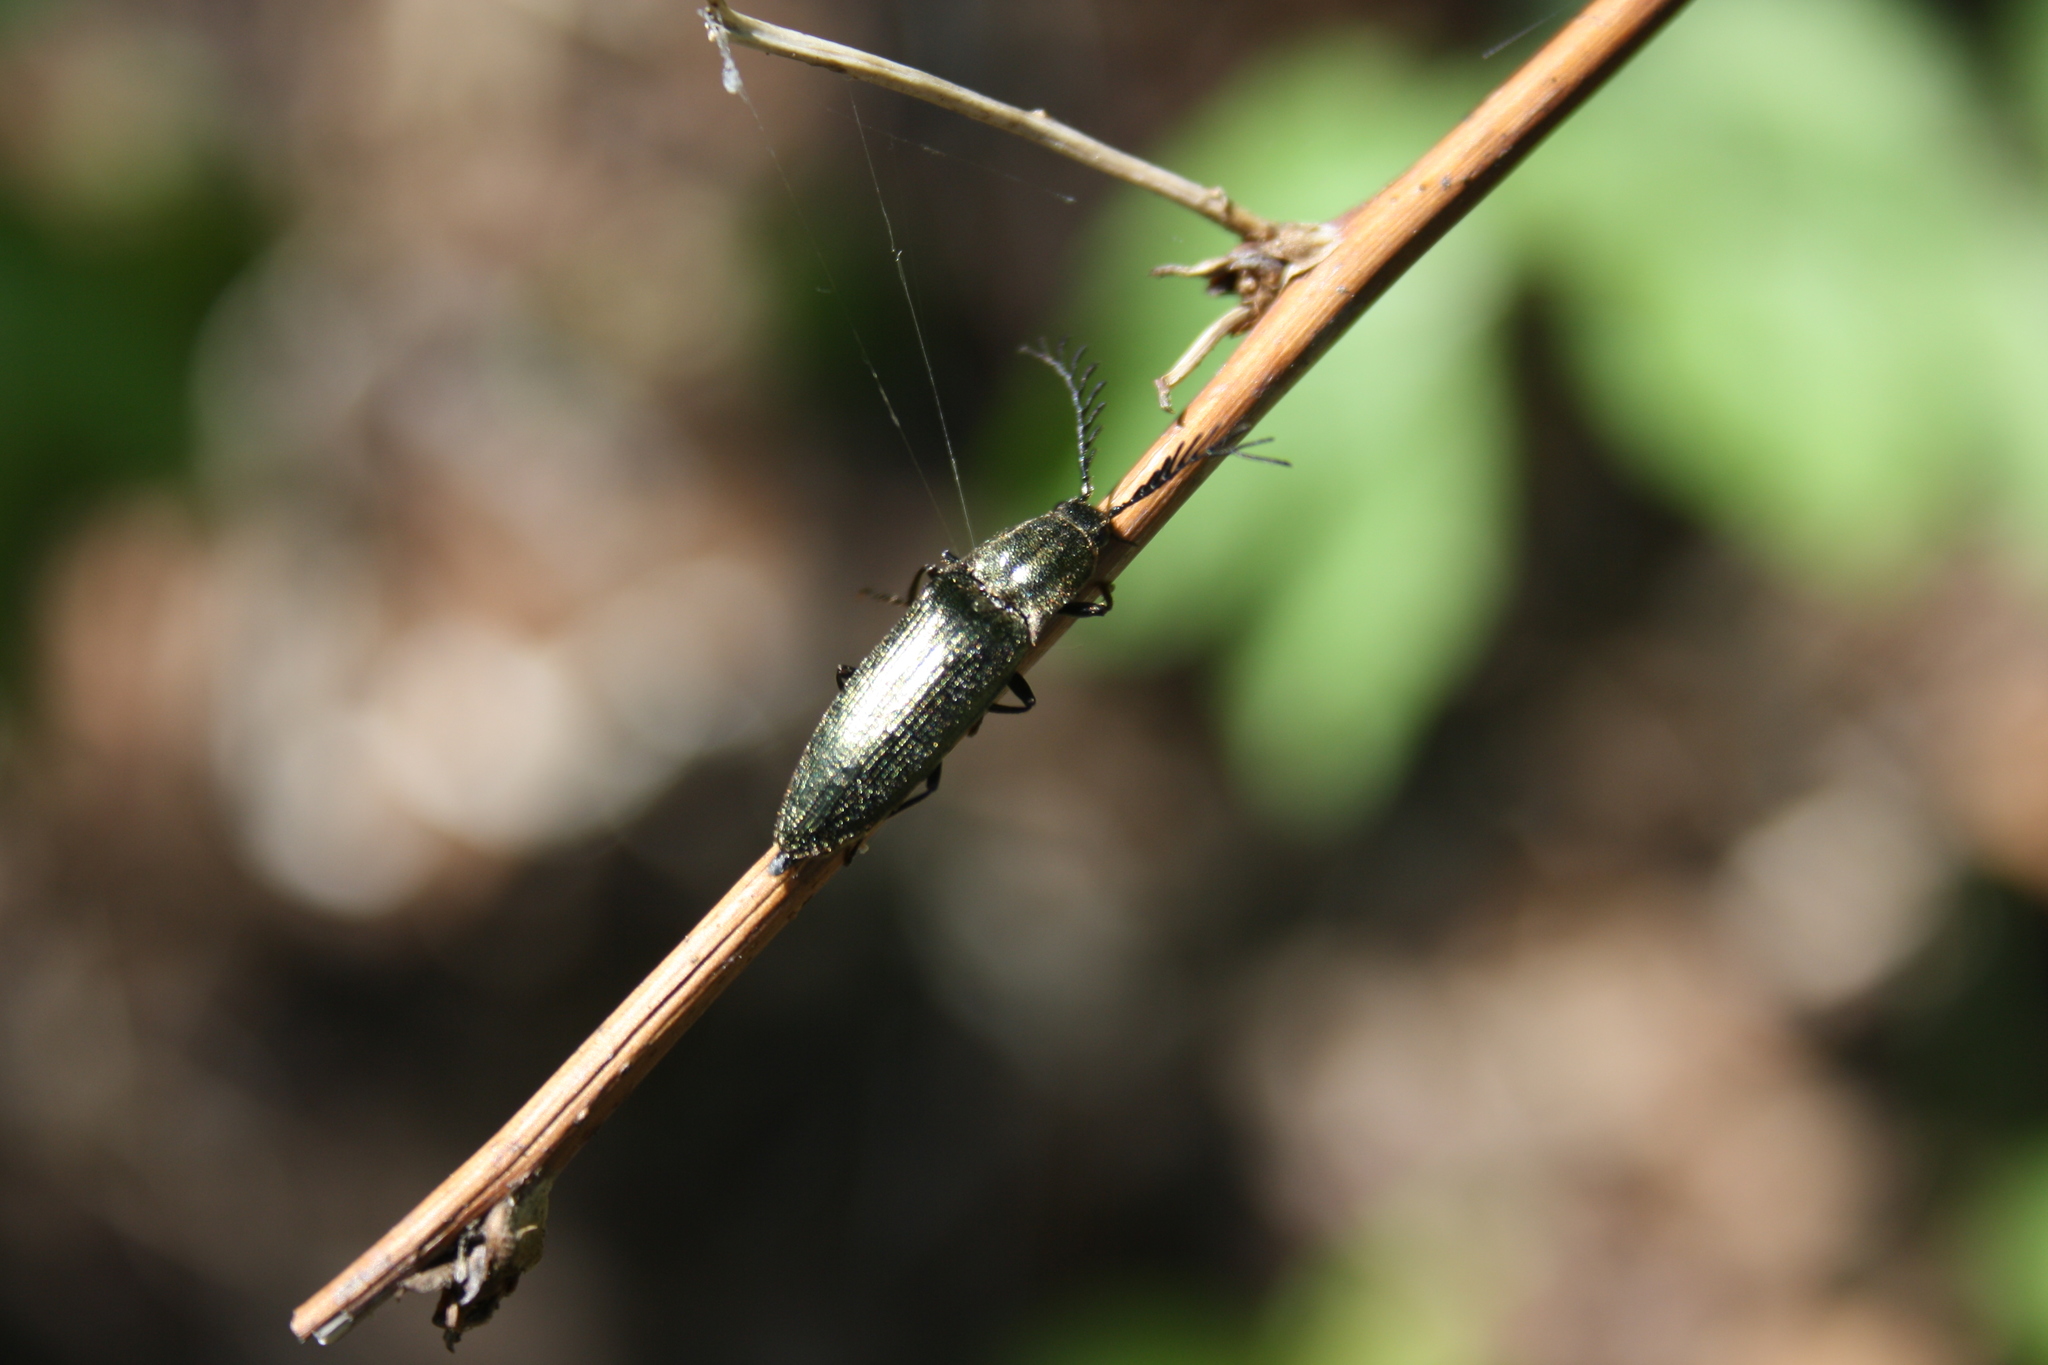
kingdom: Animalia
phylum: Arthropoda
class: Insecta
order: Coleoptera
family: Elateridae
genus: Ctenicera
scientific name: Ctenicera pectinicornis
